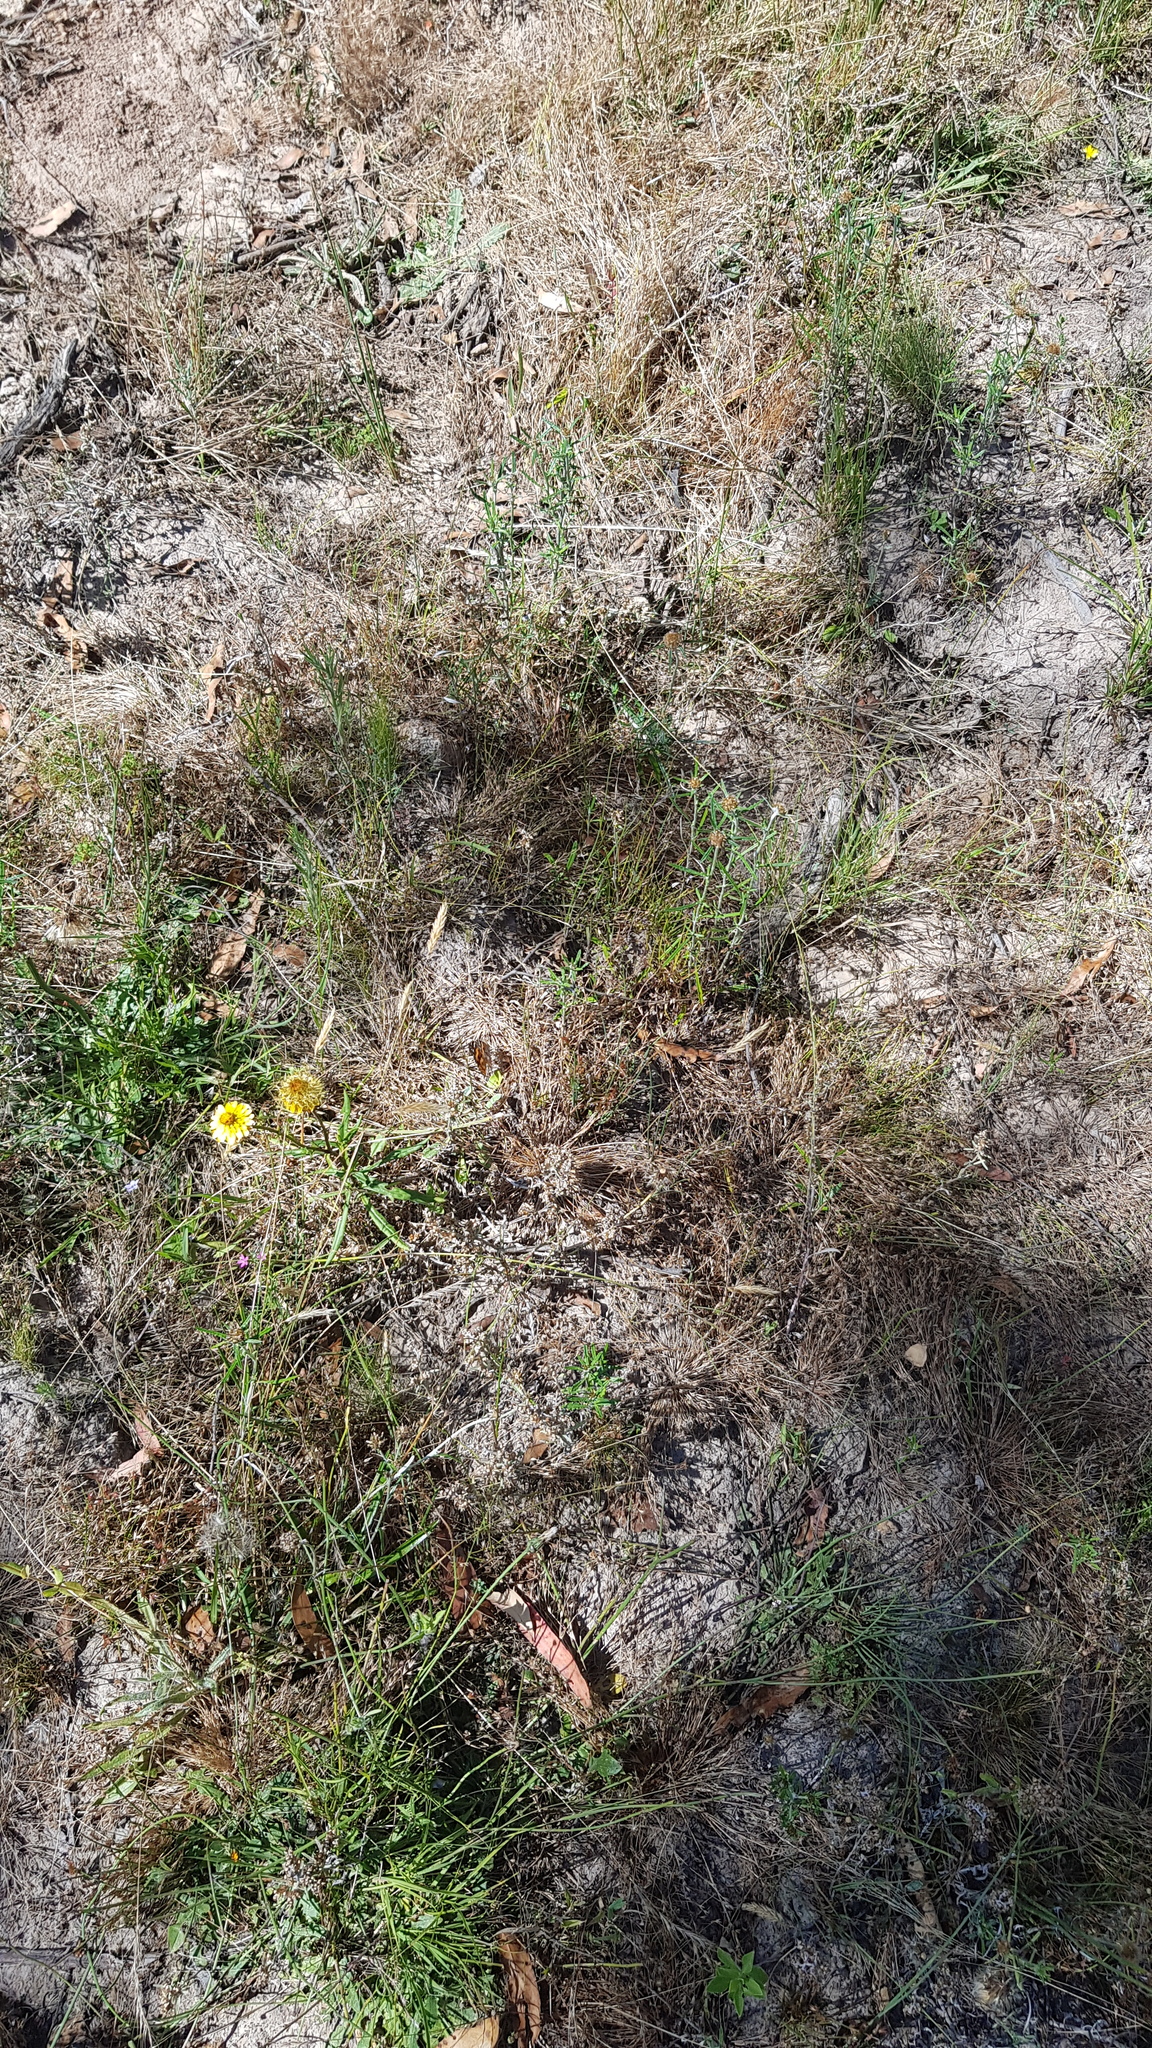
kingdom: Animalia
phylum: Arthropoda
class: Insecta
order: Lepidoptera
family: Nymphalidae
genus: Vanessa
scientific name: Vanessa kershawi
